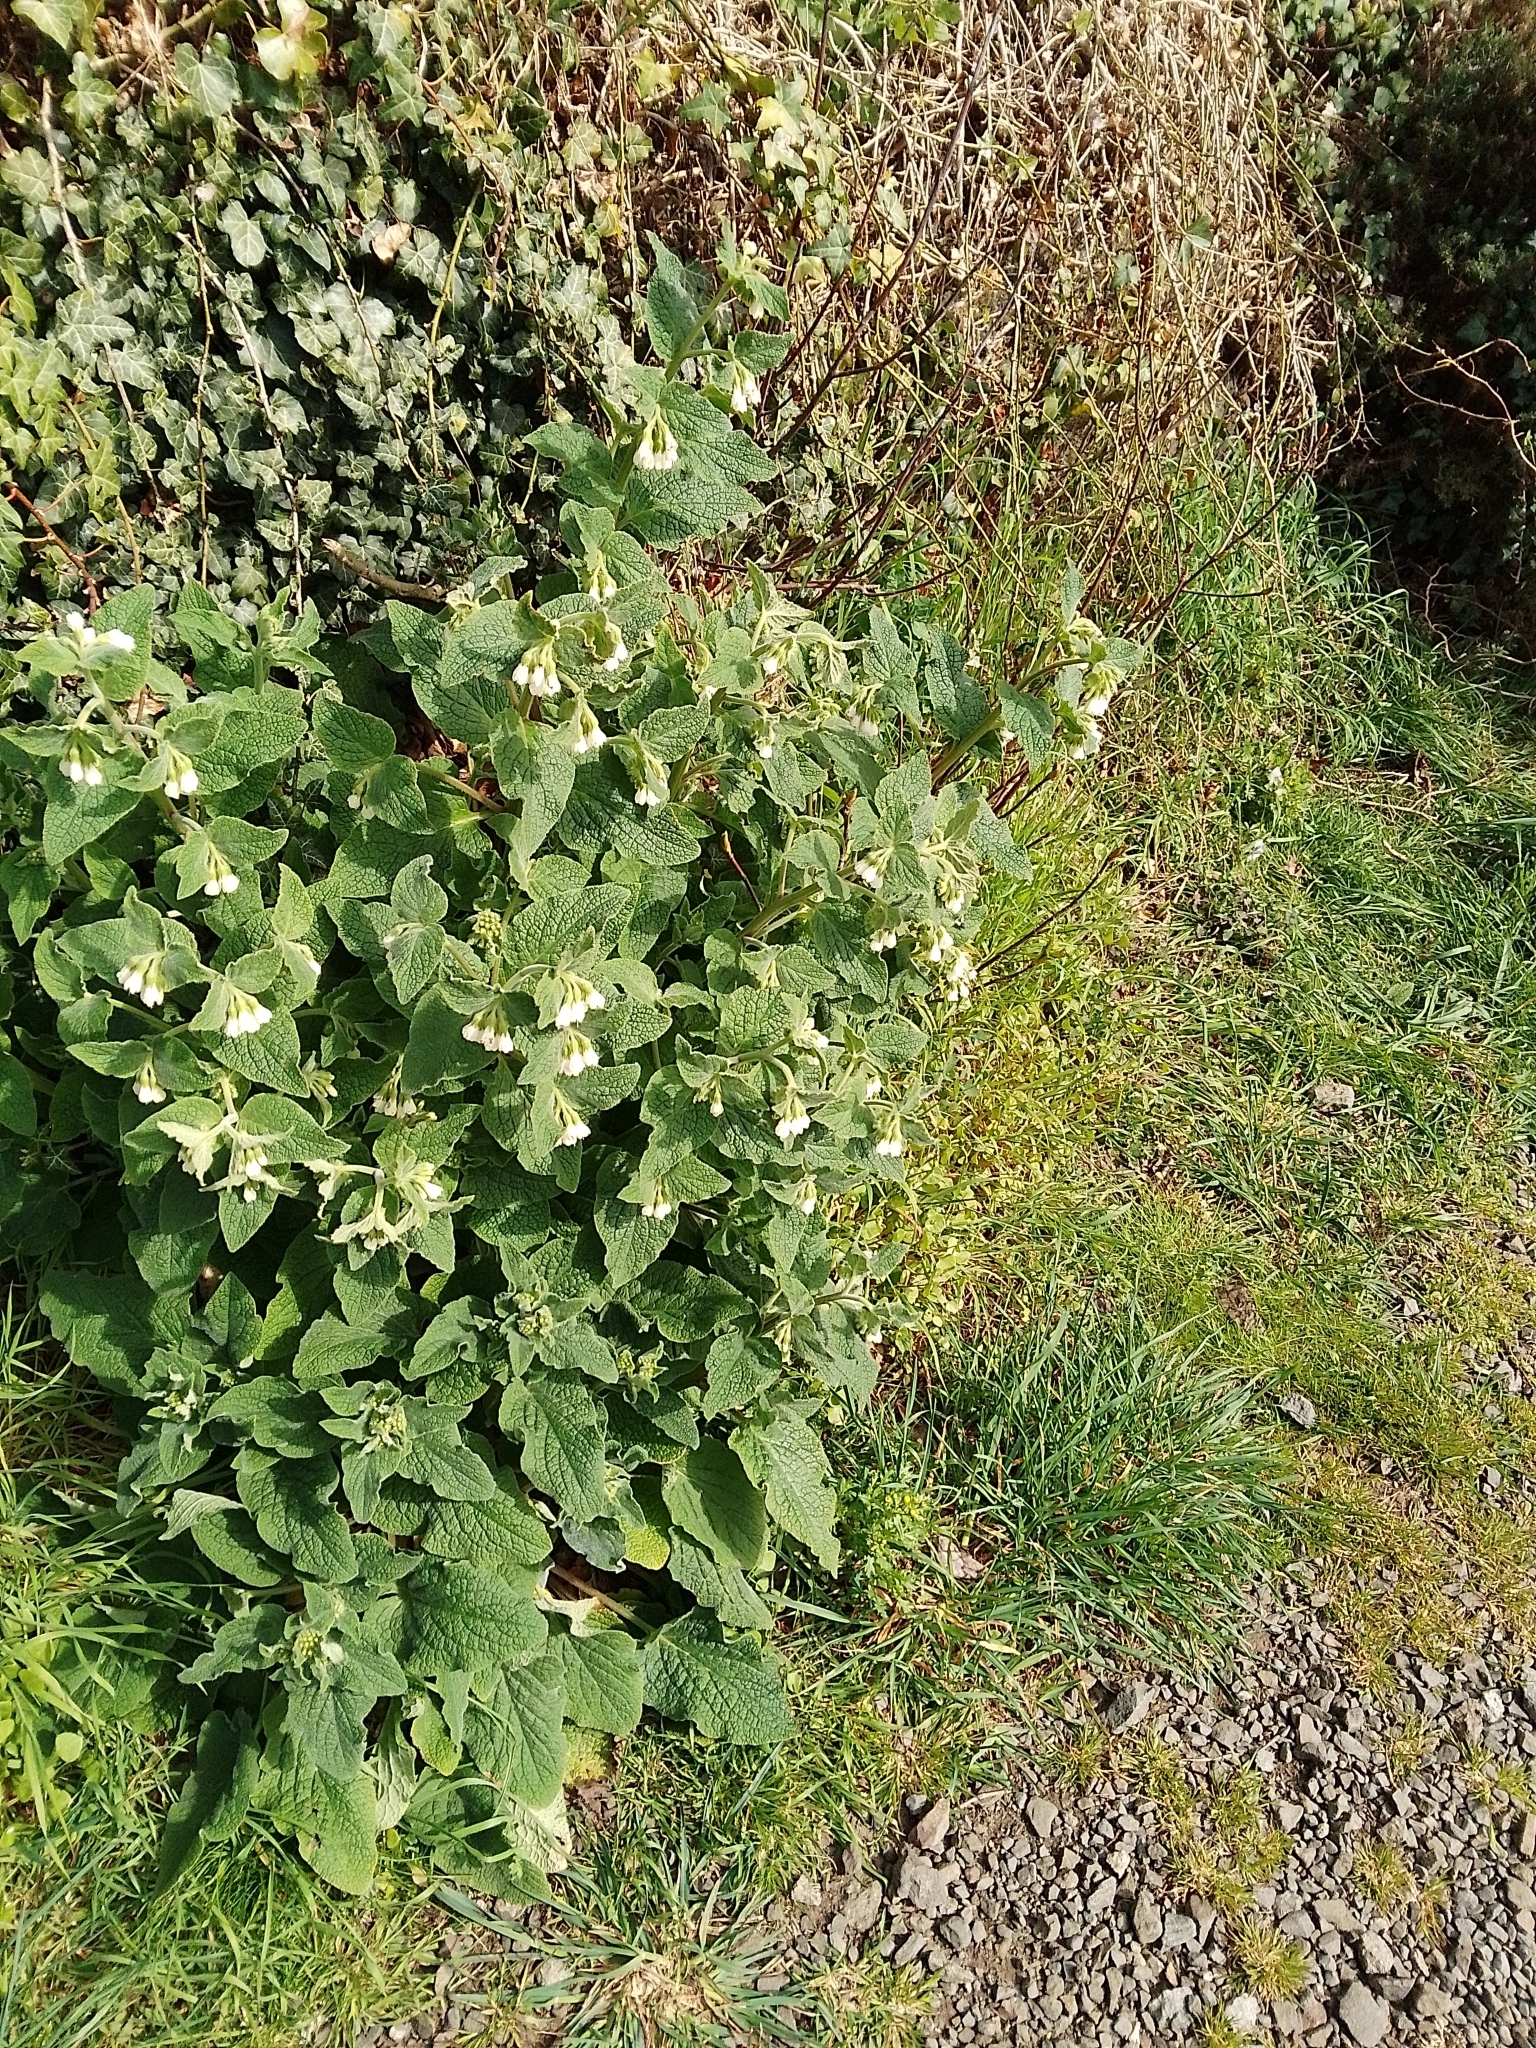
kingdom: Plantae
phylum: Tracheophyta
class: Magnoliopsida
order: Boraginales
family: Boraginaceae
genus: Symphytum
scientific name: Symphytum orientale
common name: White comfrey
